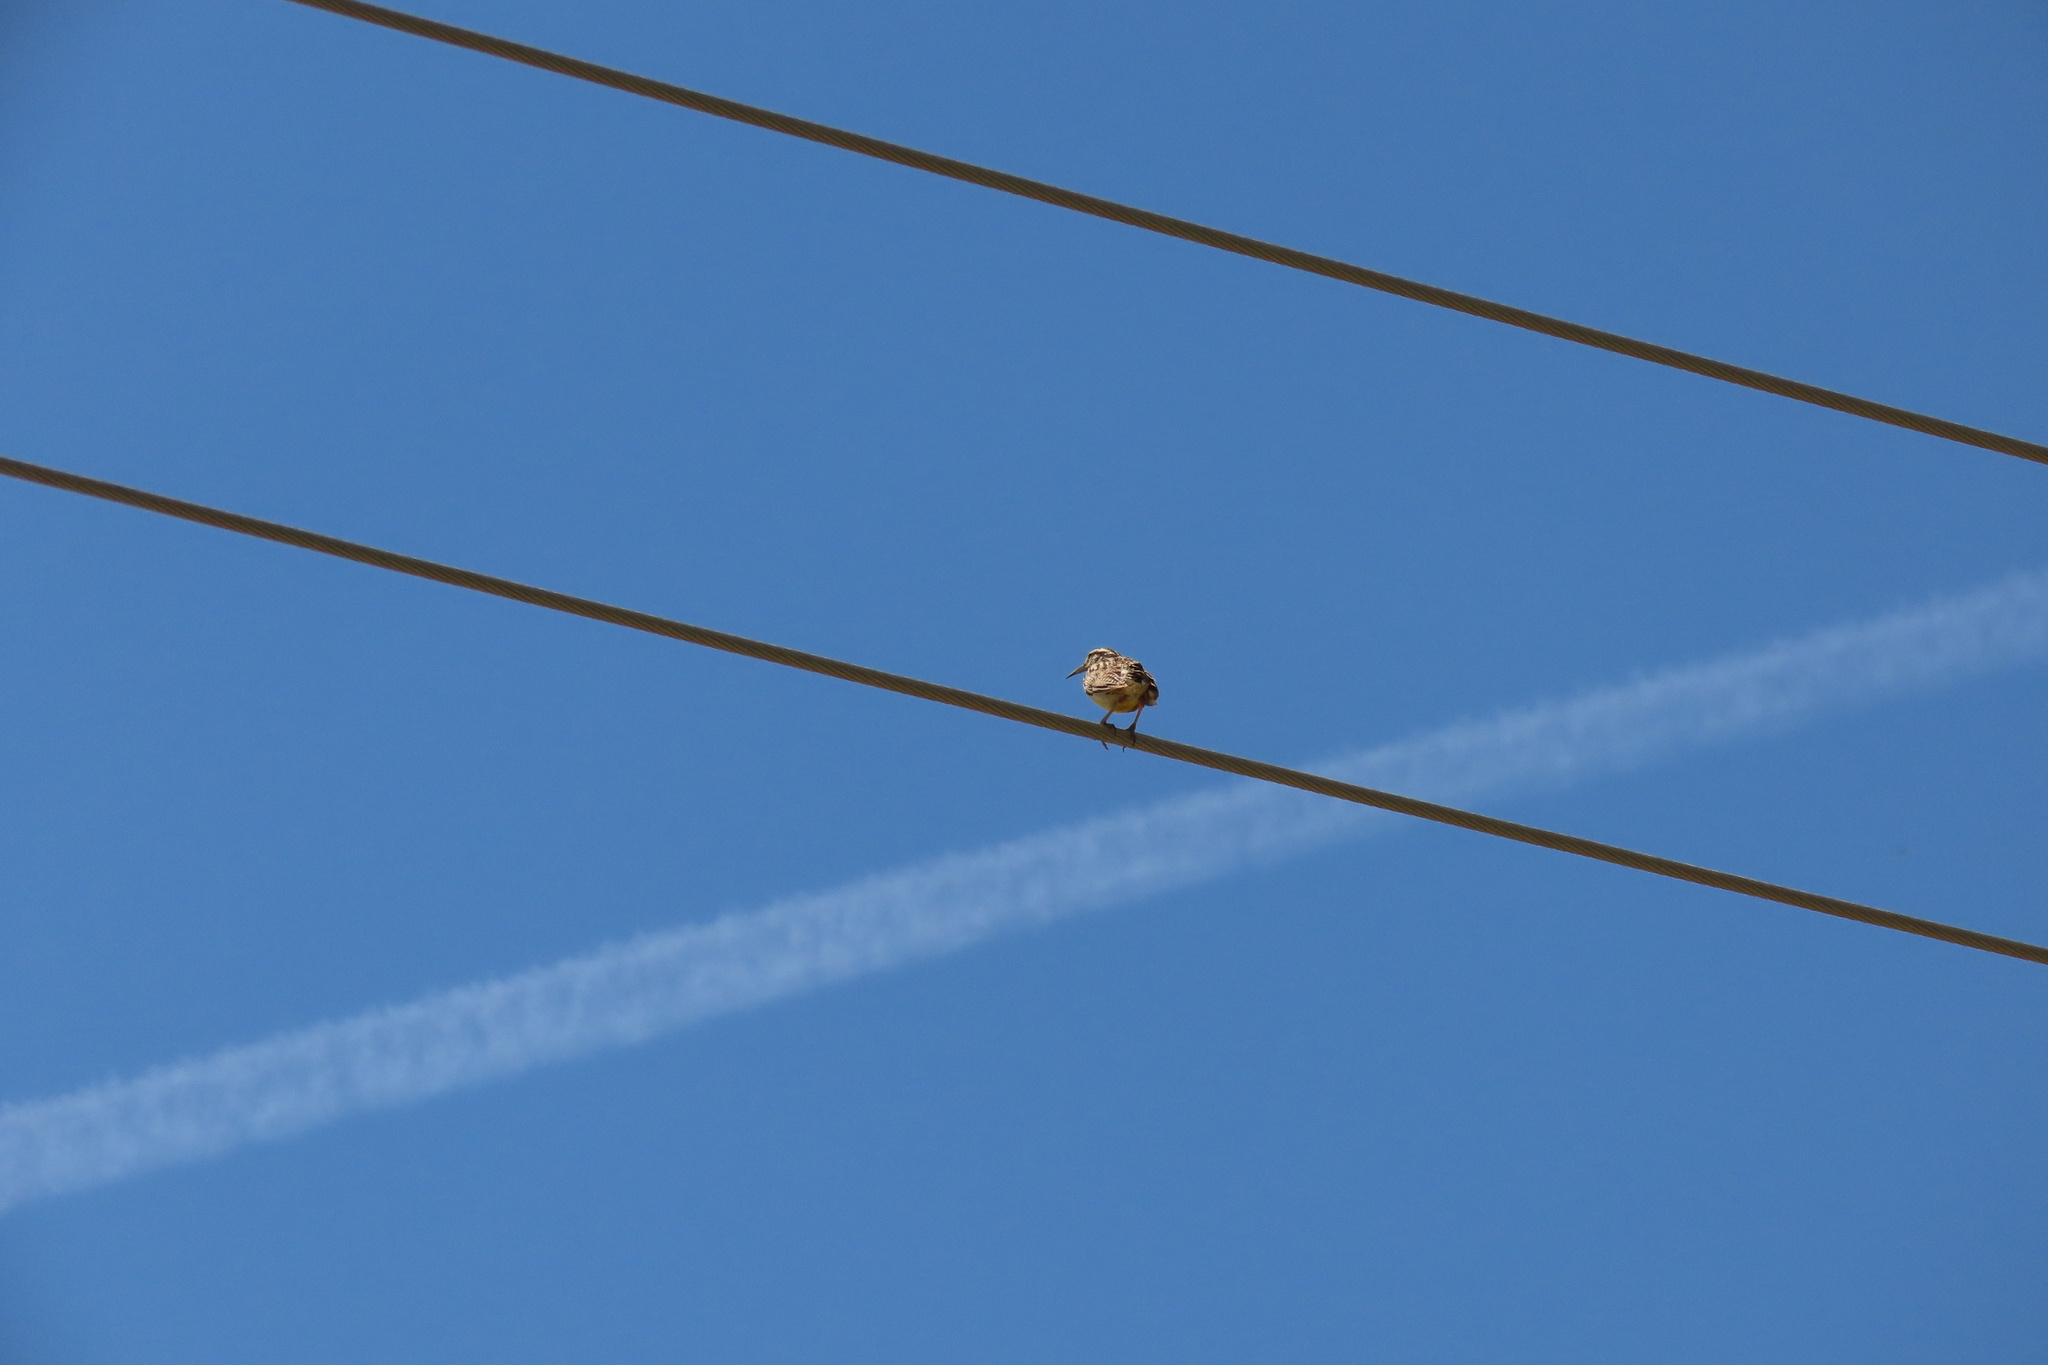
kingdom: Animalia
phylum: Chordata
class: Aves
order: Passeriformes
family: Icteridae
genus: Sturnella
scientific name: Sturnella neglecta
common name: Western meadowlark
